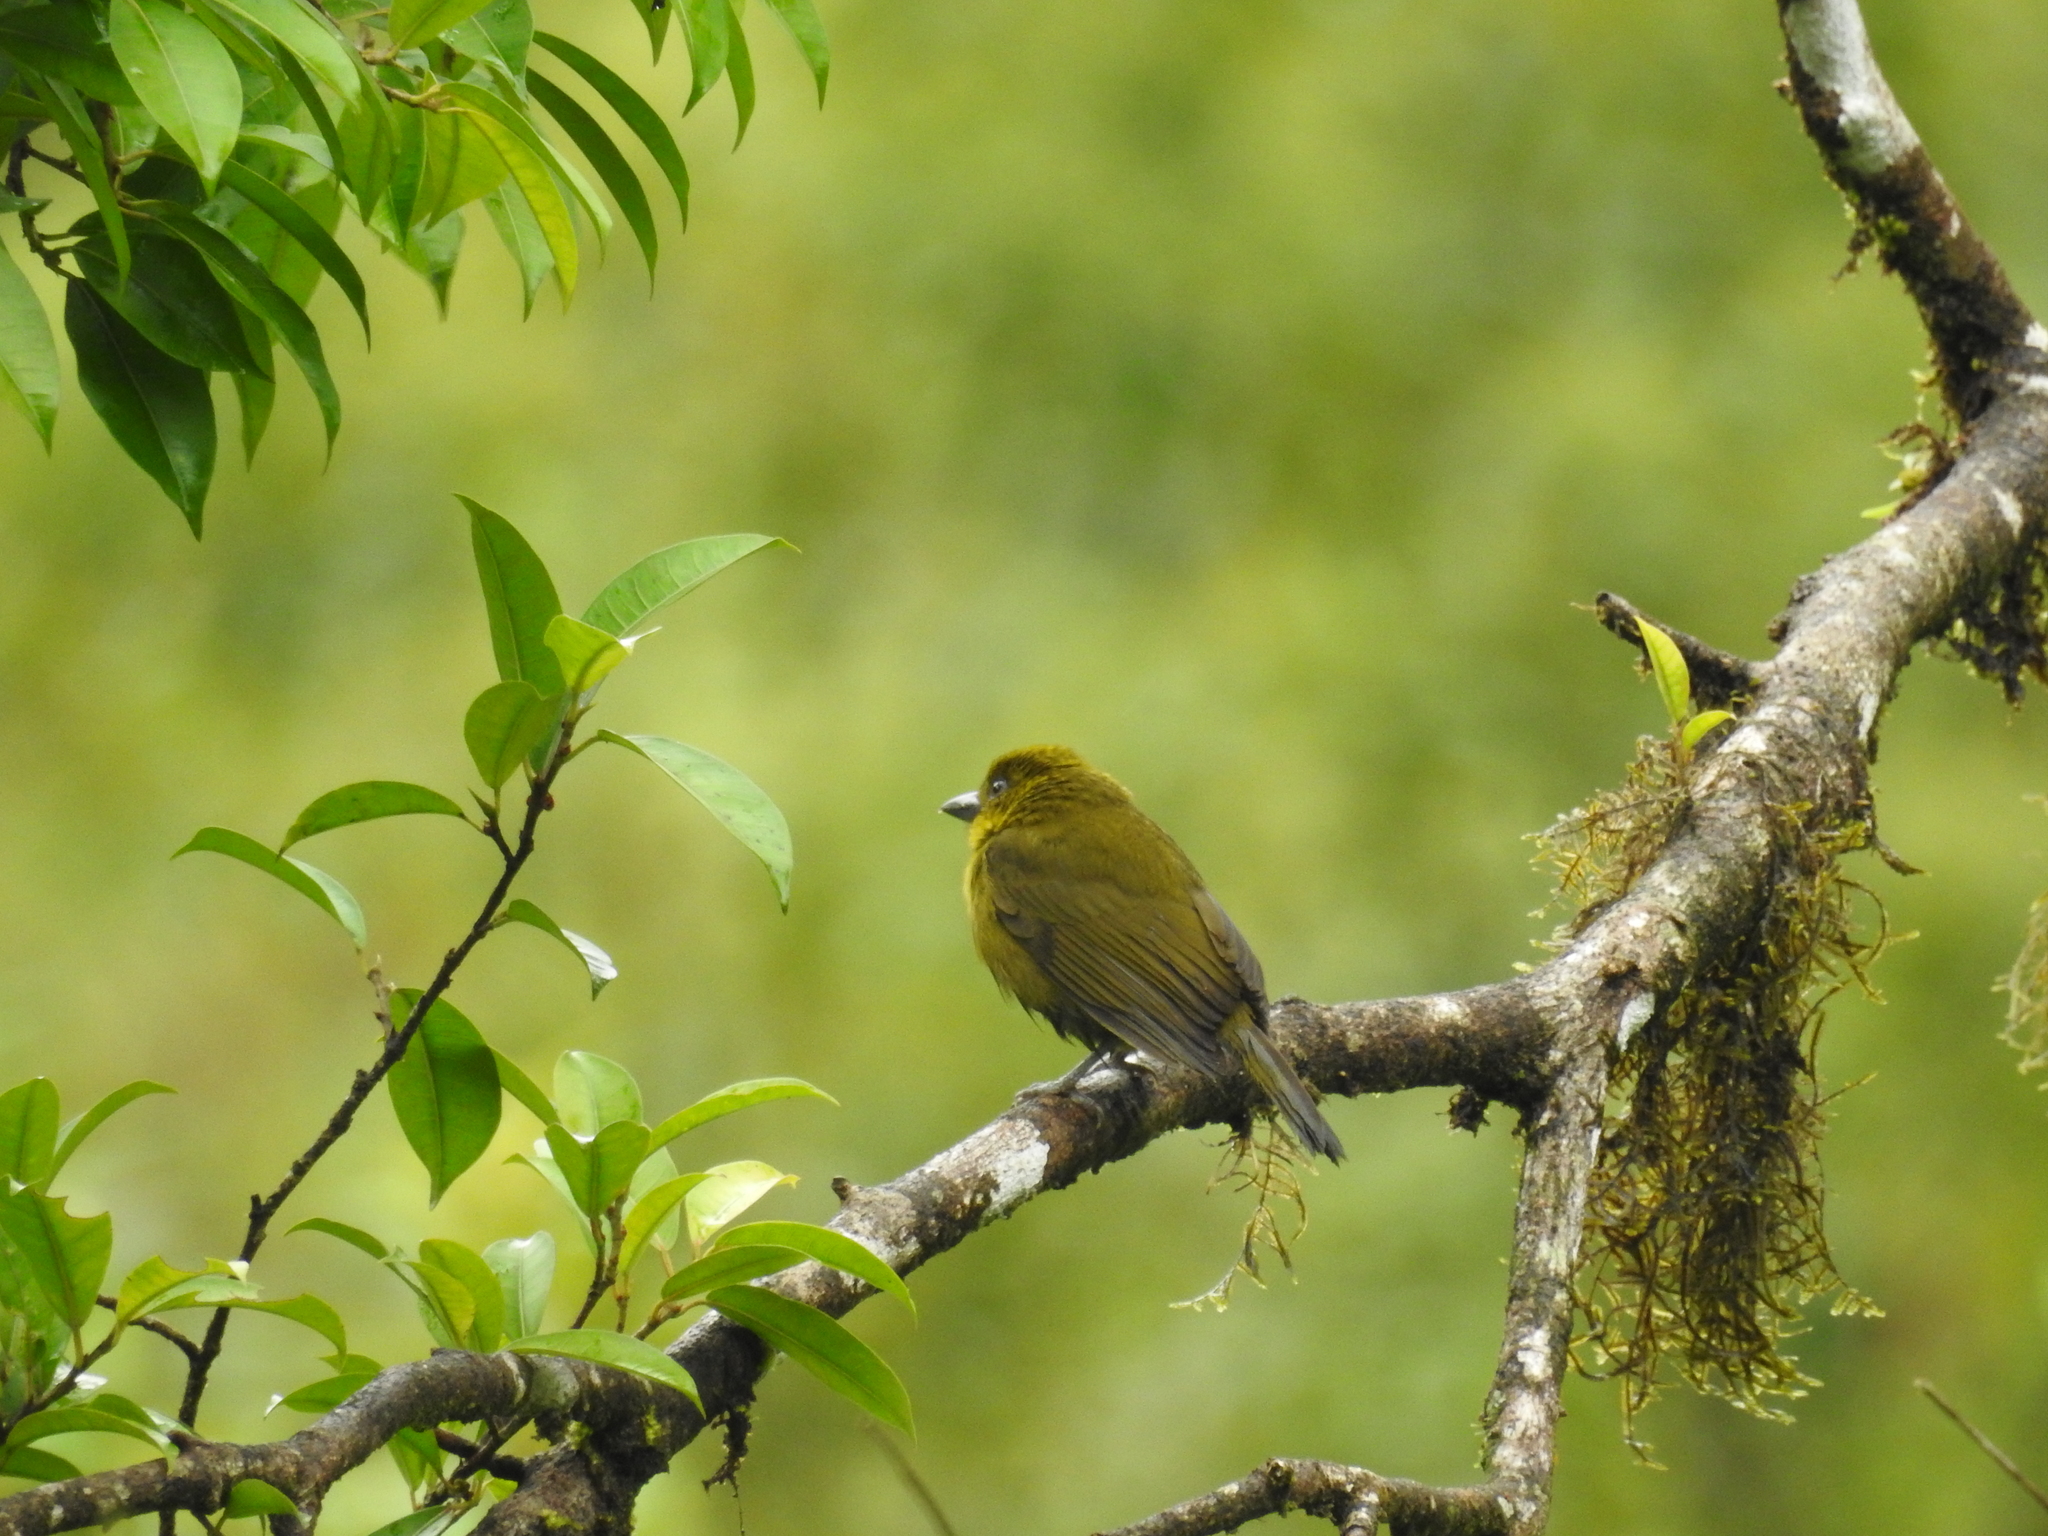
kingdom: Animalia
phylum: Chordata
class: Aves
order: Passeriformes
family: Cardinalidae
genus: Chlorothraupis
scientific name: Chlorothraupis carmioli
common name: Carmiol's tanager
